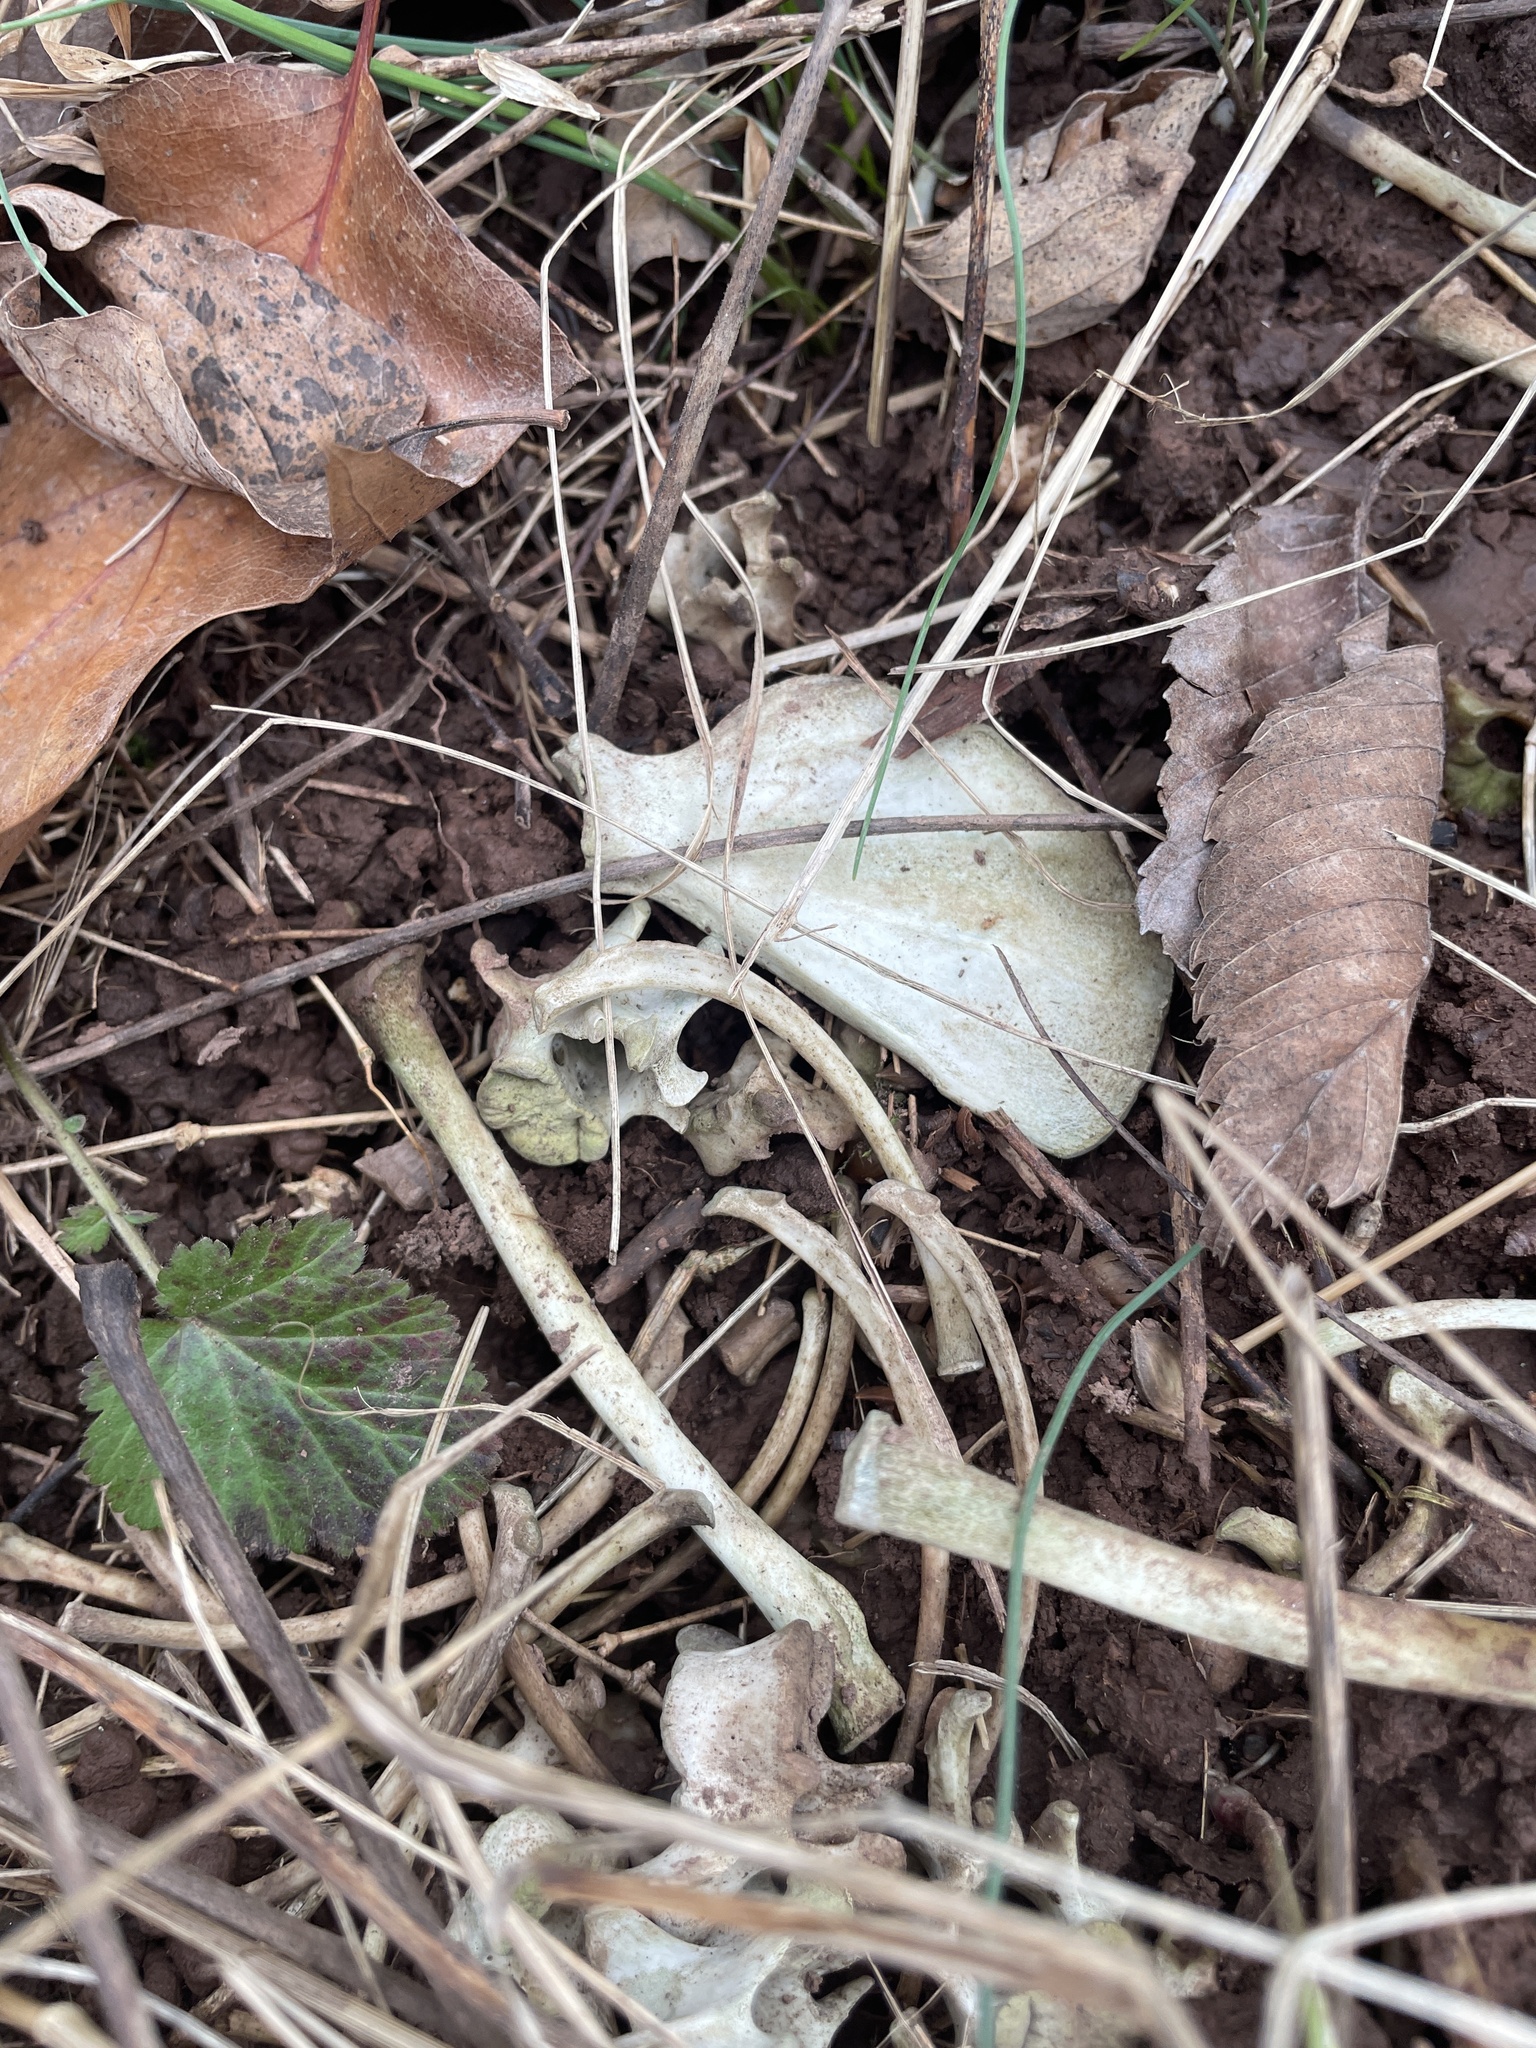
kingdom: Animalia
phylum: Chordata
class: Mammalia
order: Carnivora
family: Procyonidae
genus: Procyon
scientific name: Procyon lotor
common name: Raccoon
